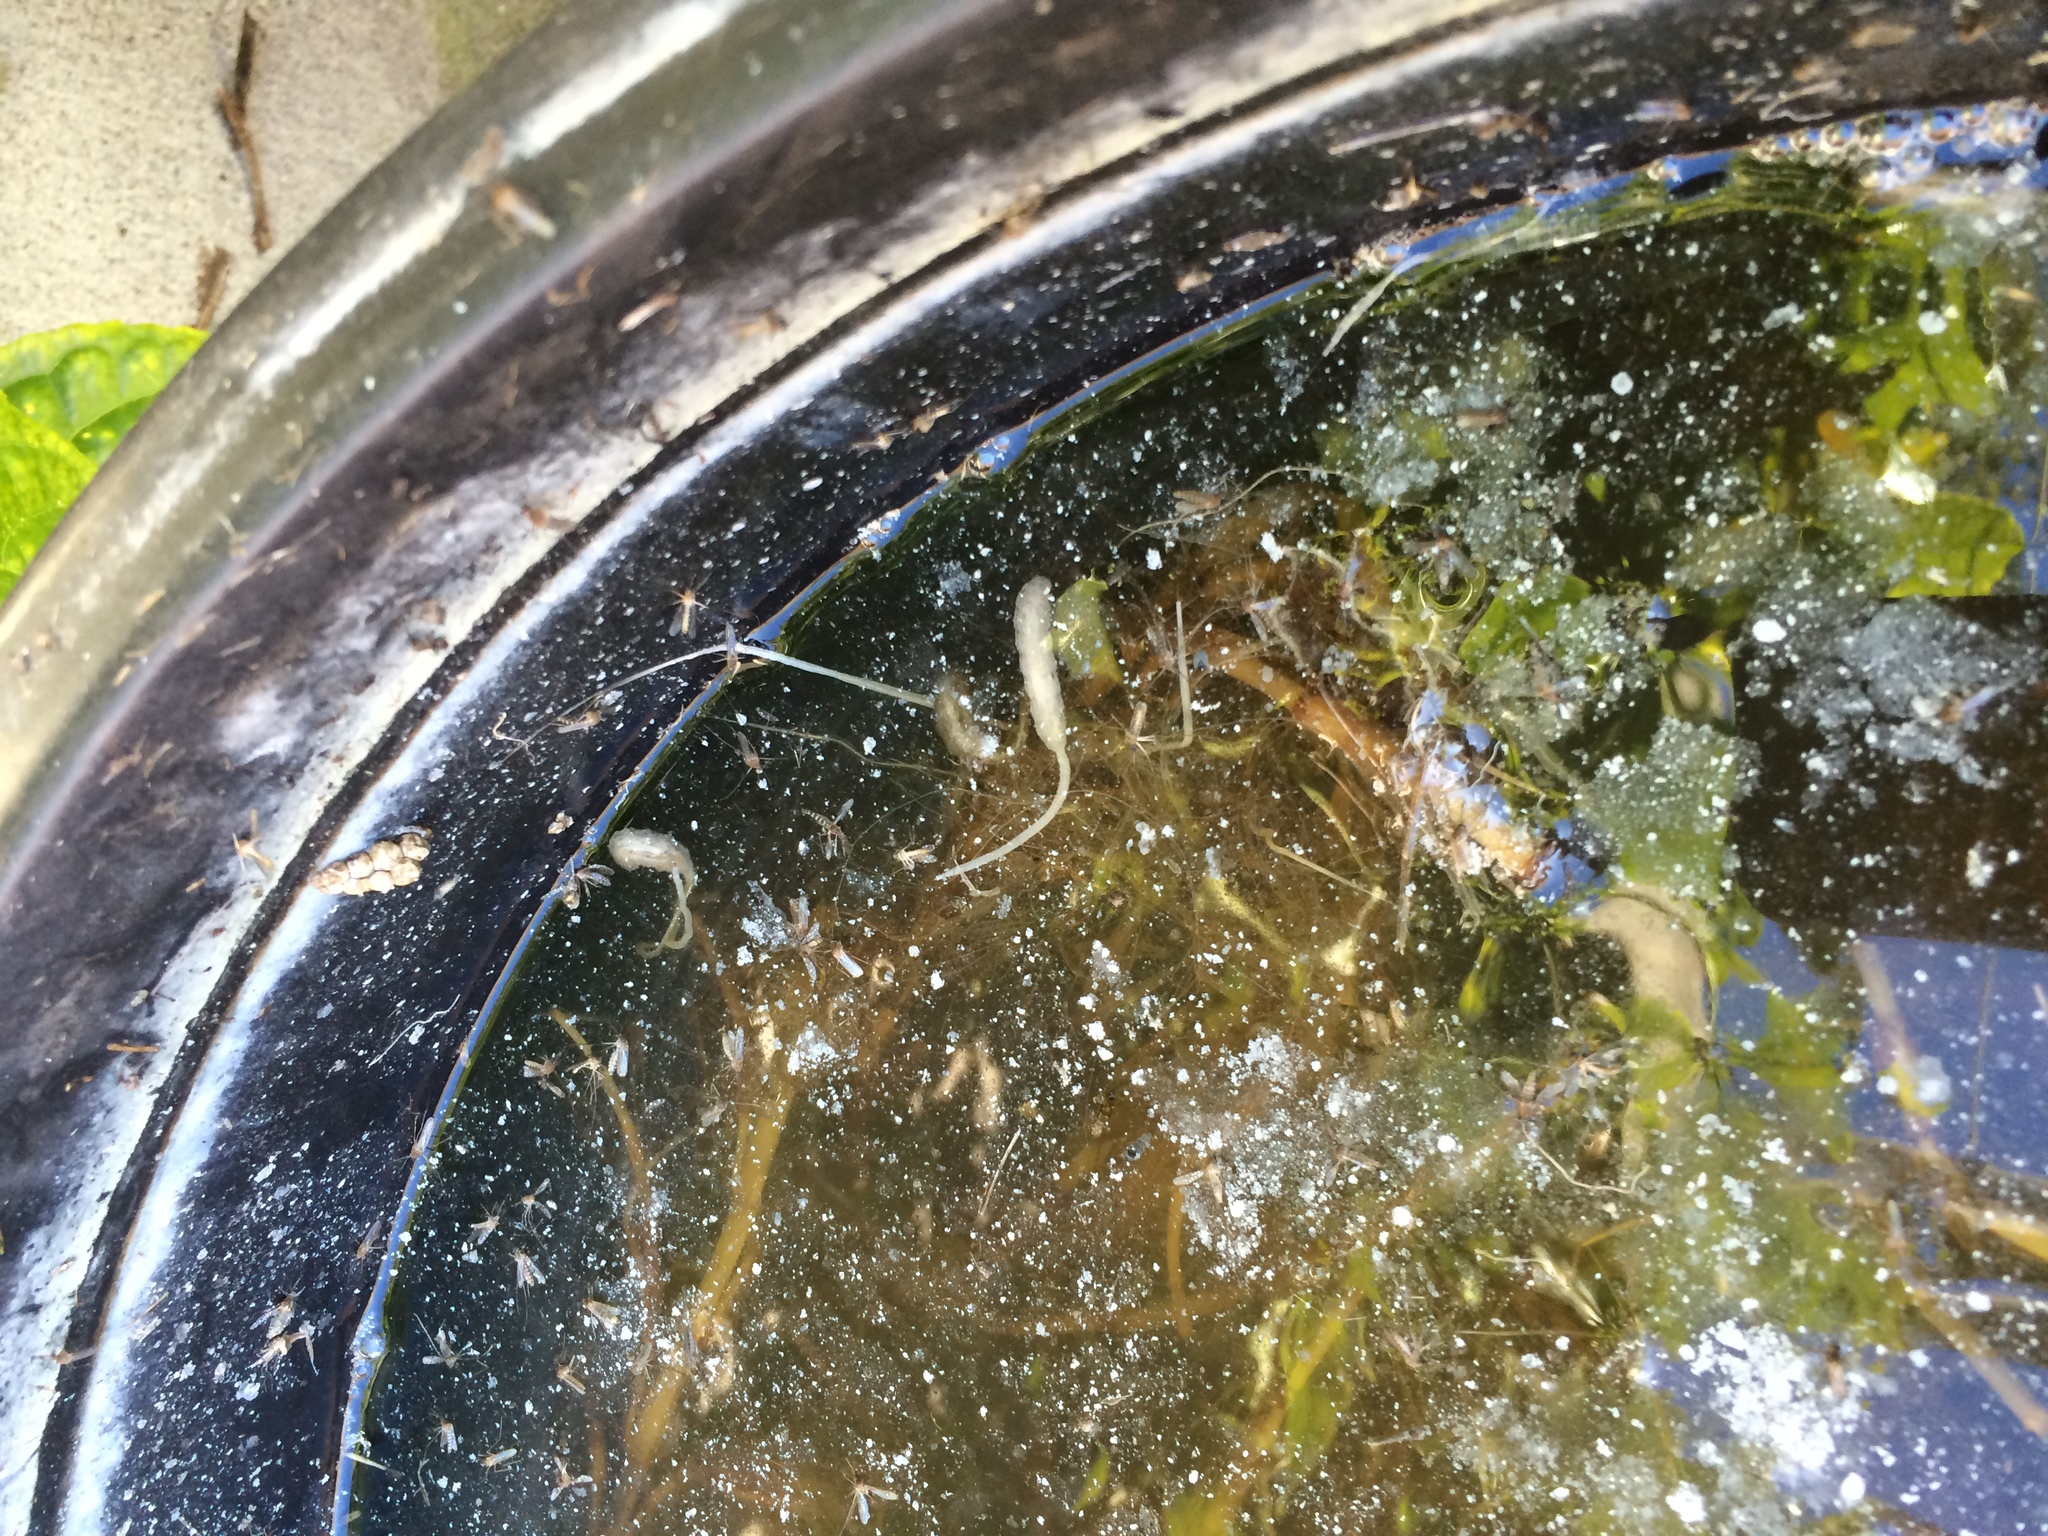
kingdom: Animalia
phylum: Arthropoda
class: Insecta
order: Diptera
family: Syrphidae
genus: Eristalis
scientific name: Eristalis tenax
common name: Drone fly
